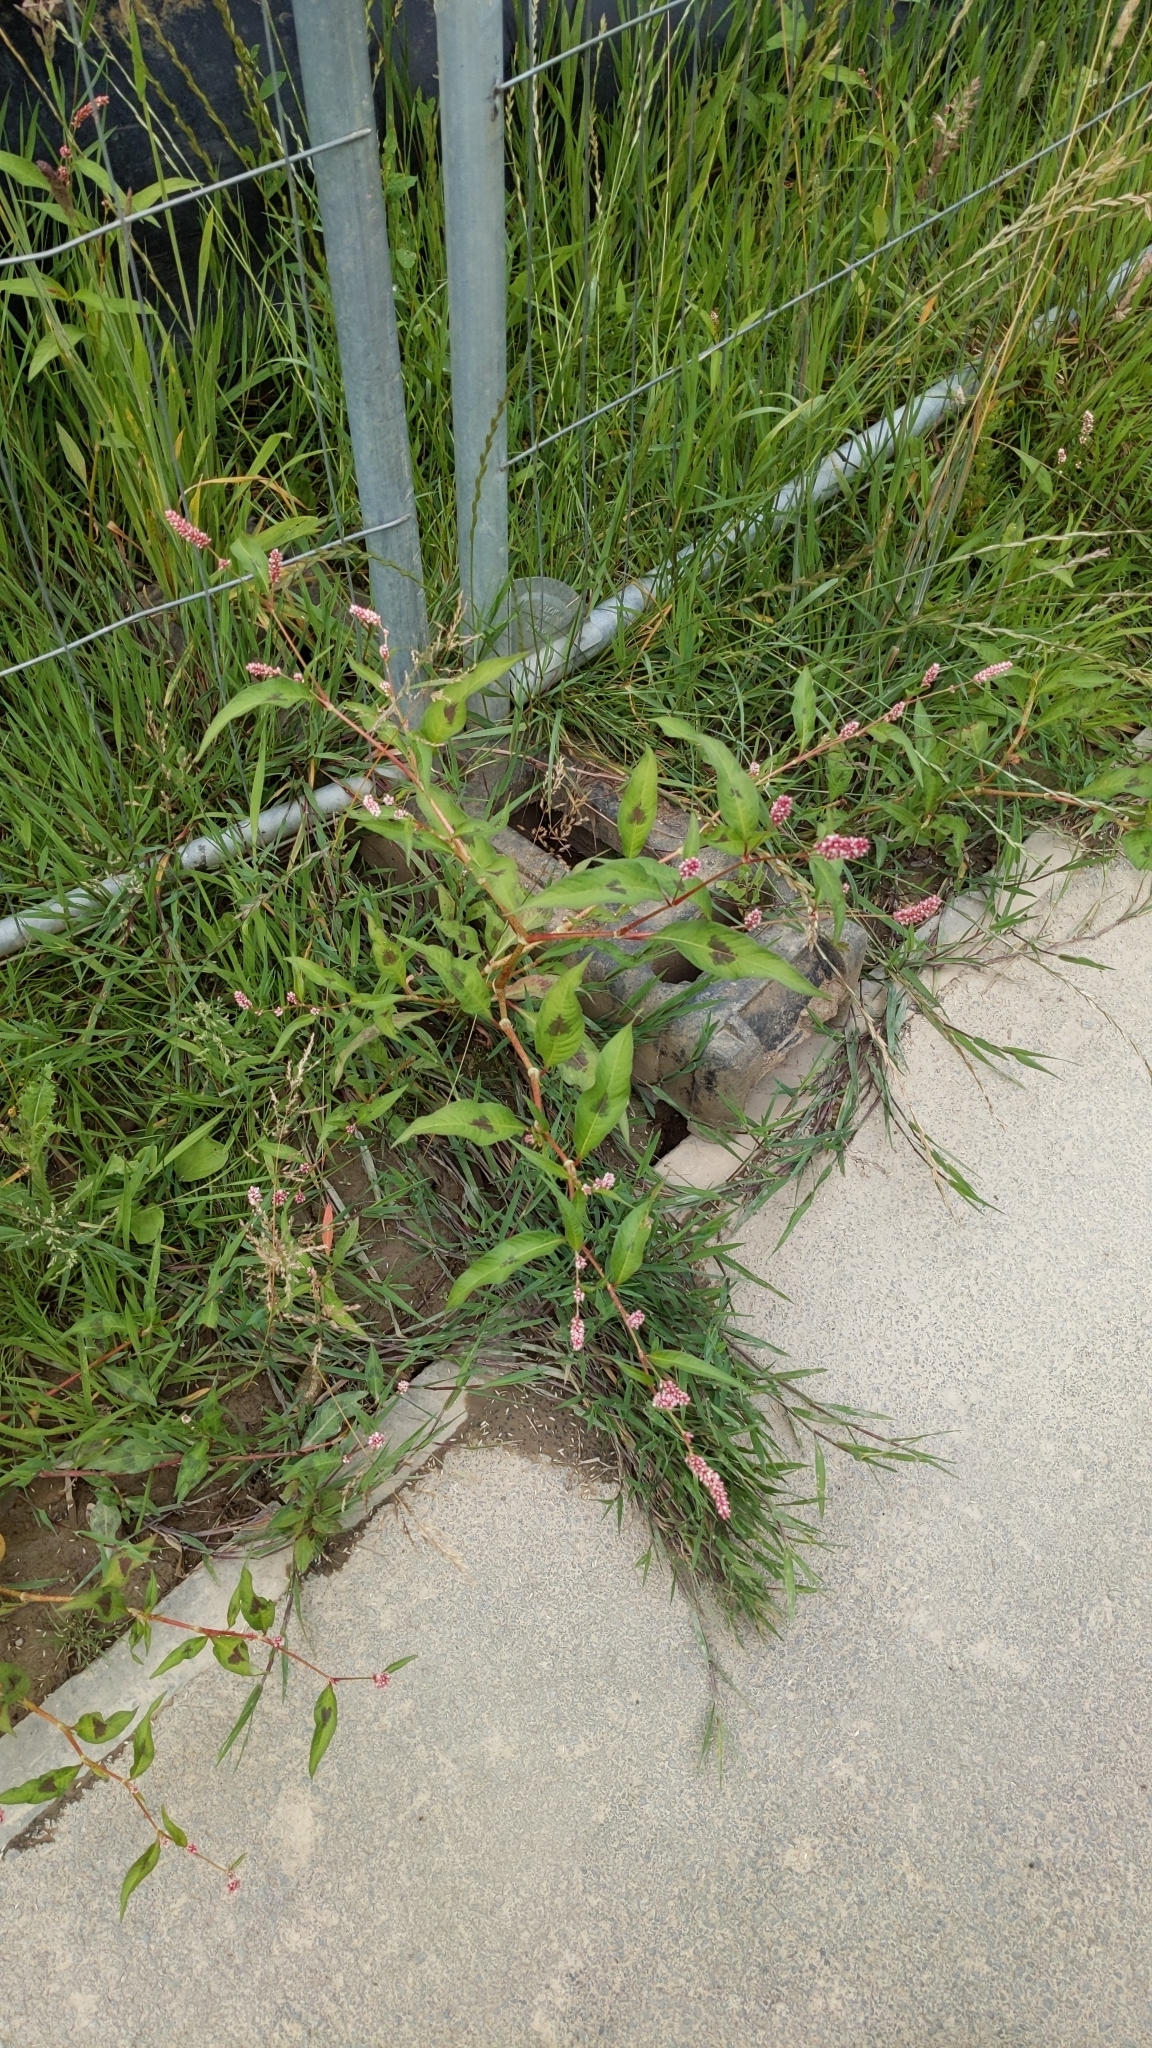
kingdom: Plantae
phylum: Tracheophyta
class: Magnoliopsida
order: Caryophyllales
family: Polygonaceae
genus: Persicaria
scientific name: Persicaria maculosa
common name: Redshank
